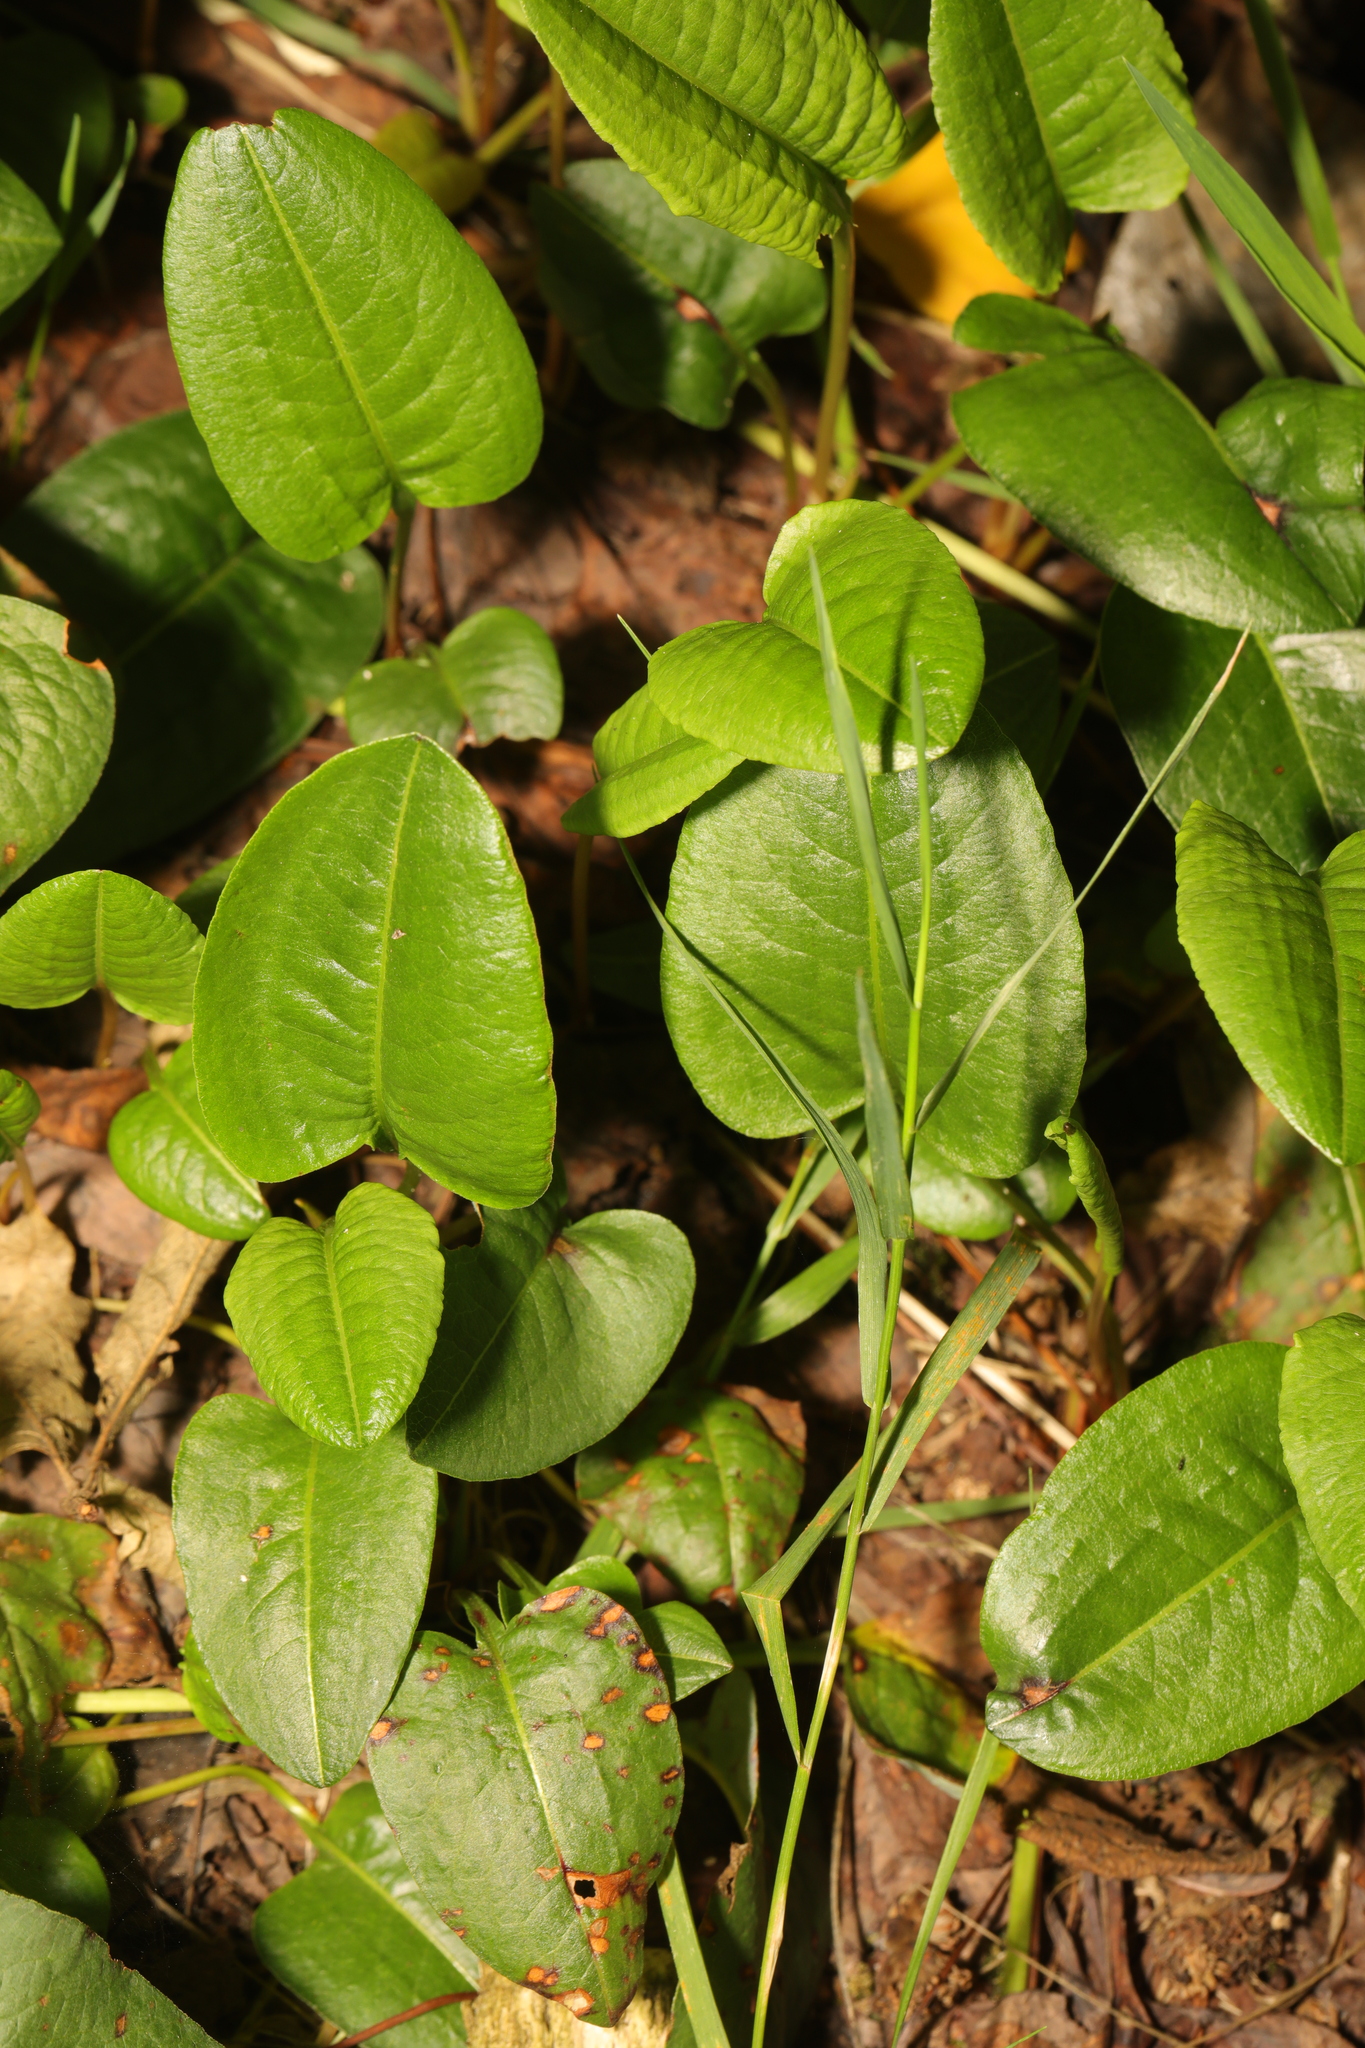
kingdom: Plantae
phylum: Tracheophyta
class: Magnoliopsida
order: Caryophyllales
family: Polygonaceae
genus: Bistorta
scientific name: Bistorta officinalis
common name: Common bistort
